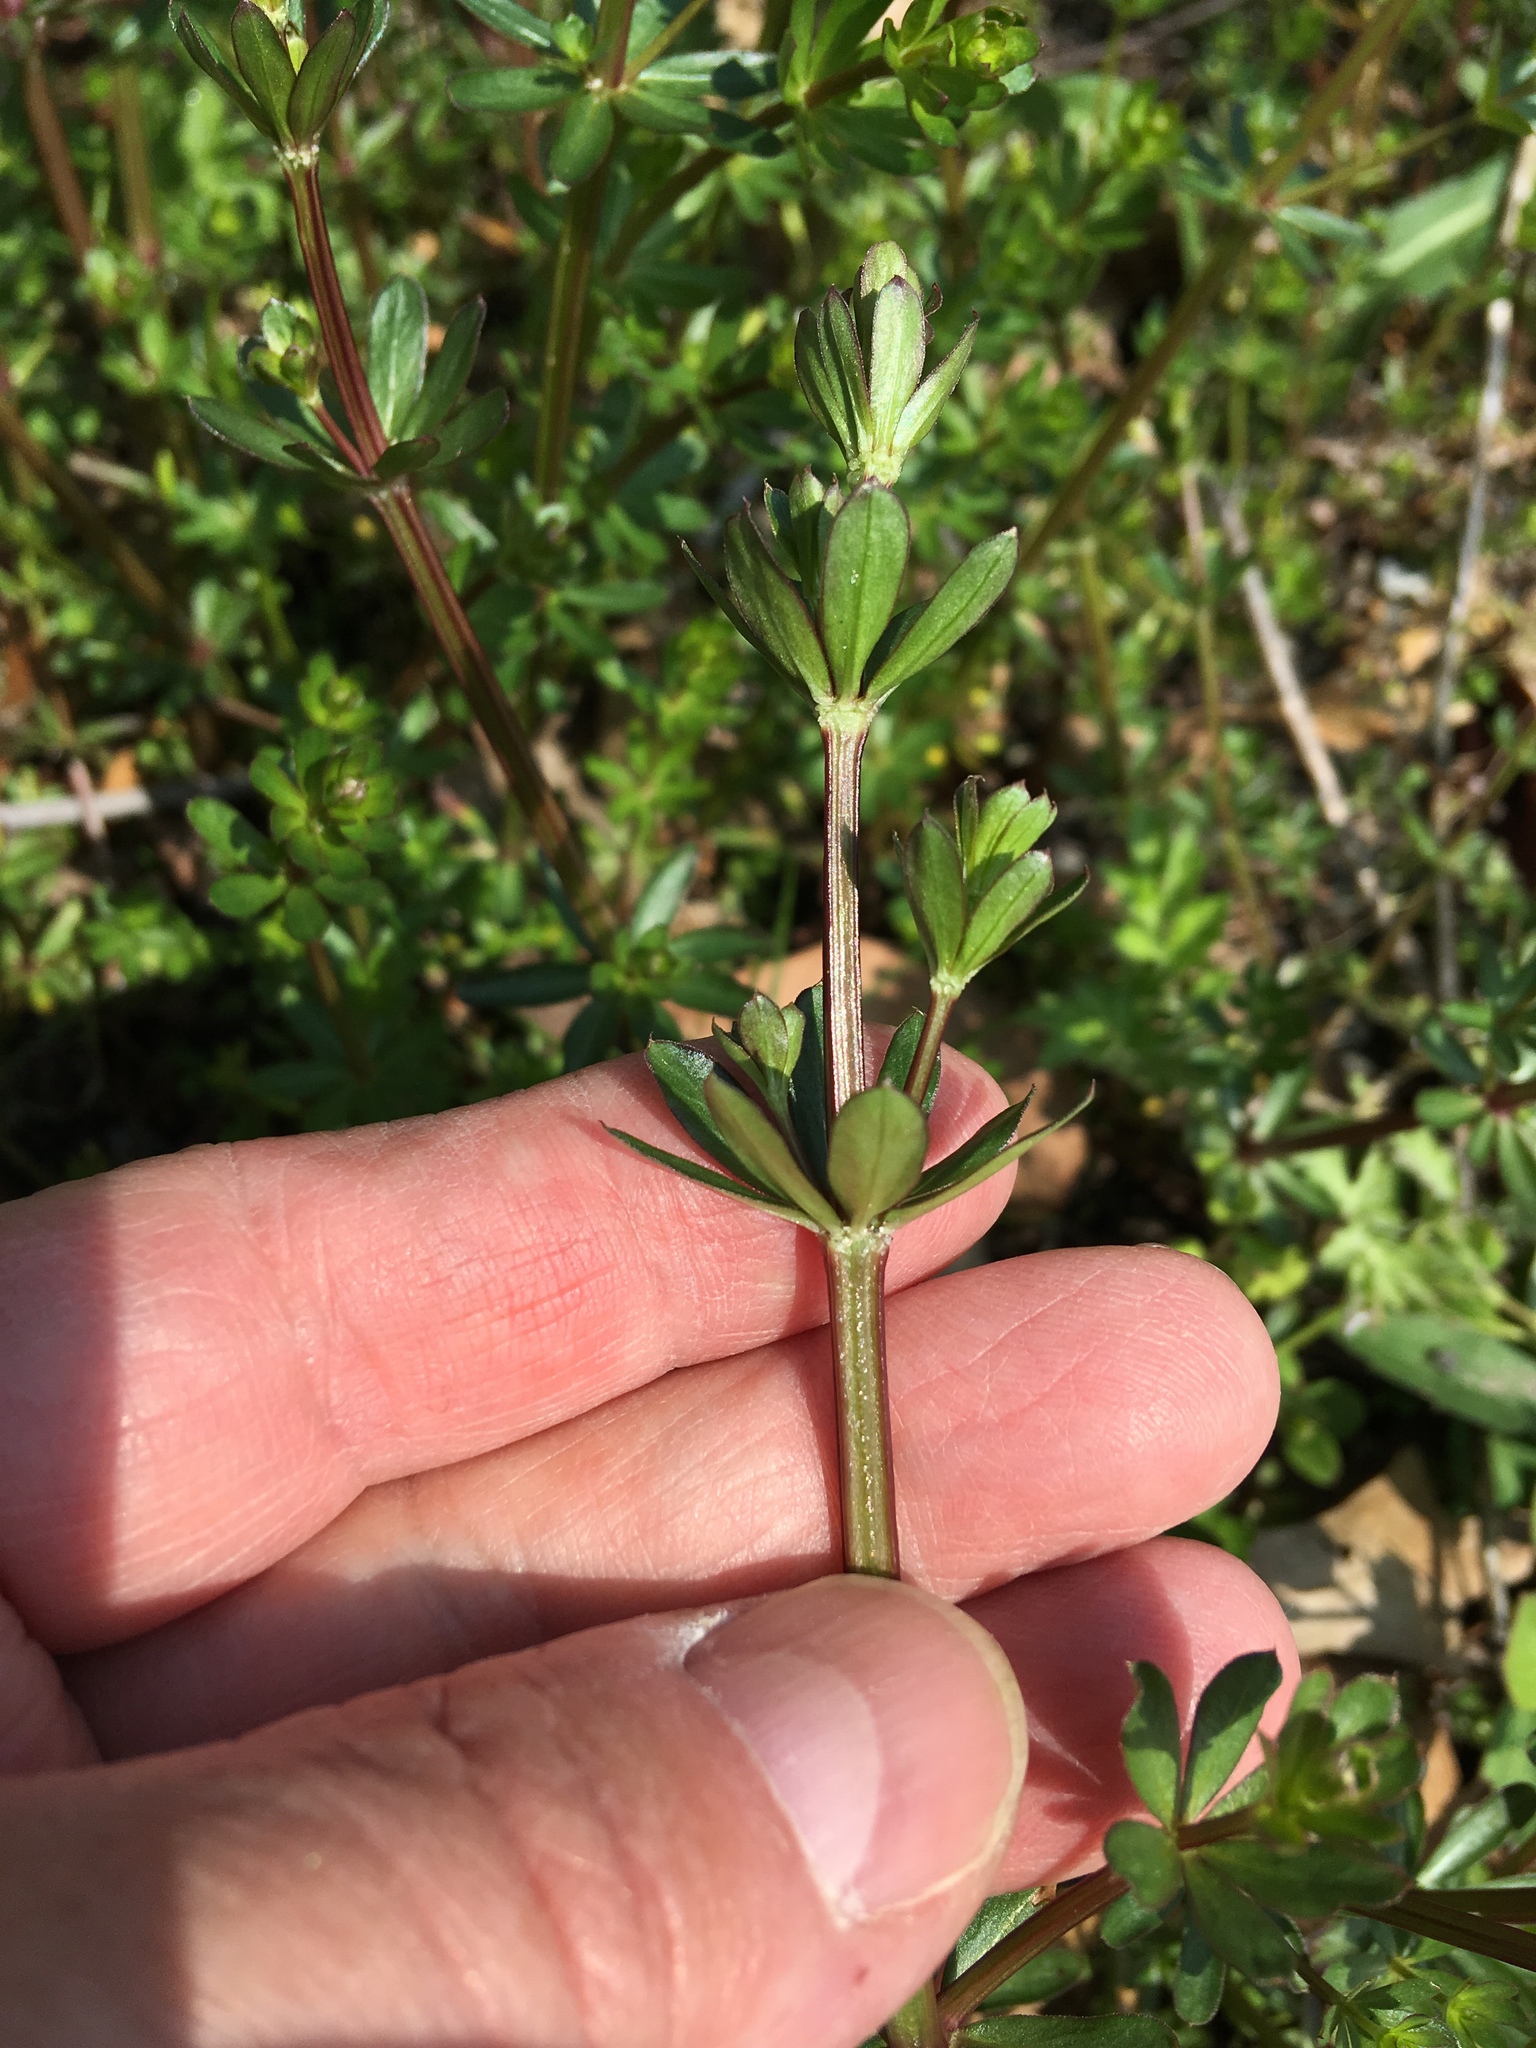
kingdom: Plantae
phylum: Tracheophyta
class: Magnoliopsida
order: Gentianales
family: Rubiaceae
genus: Galium
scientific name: Galium mollugo
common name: Hedge bedstraw
